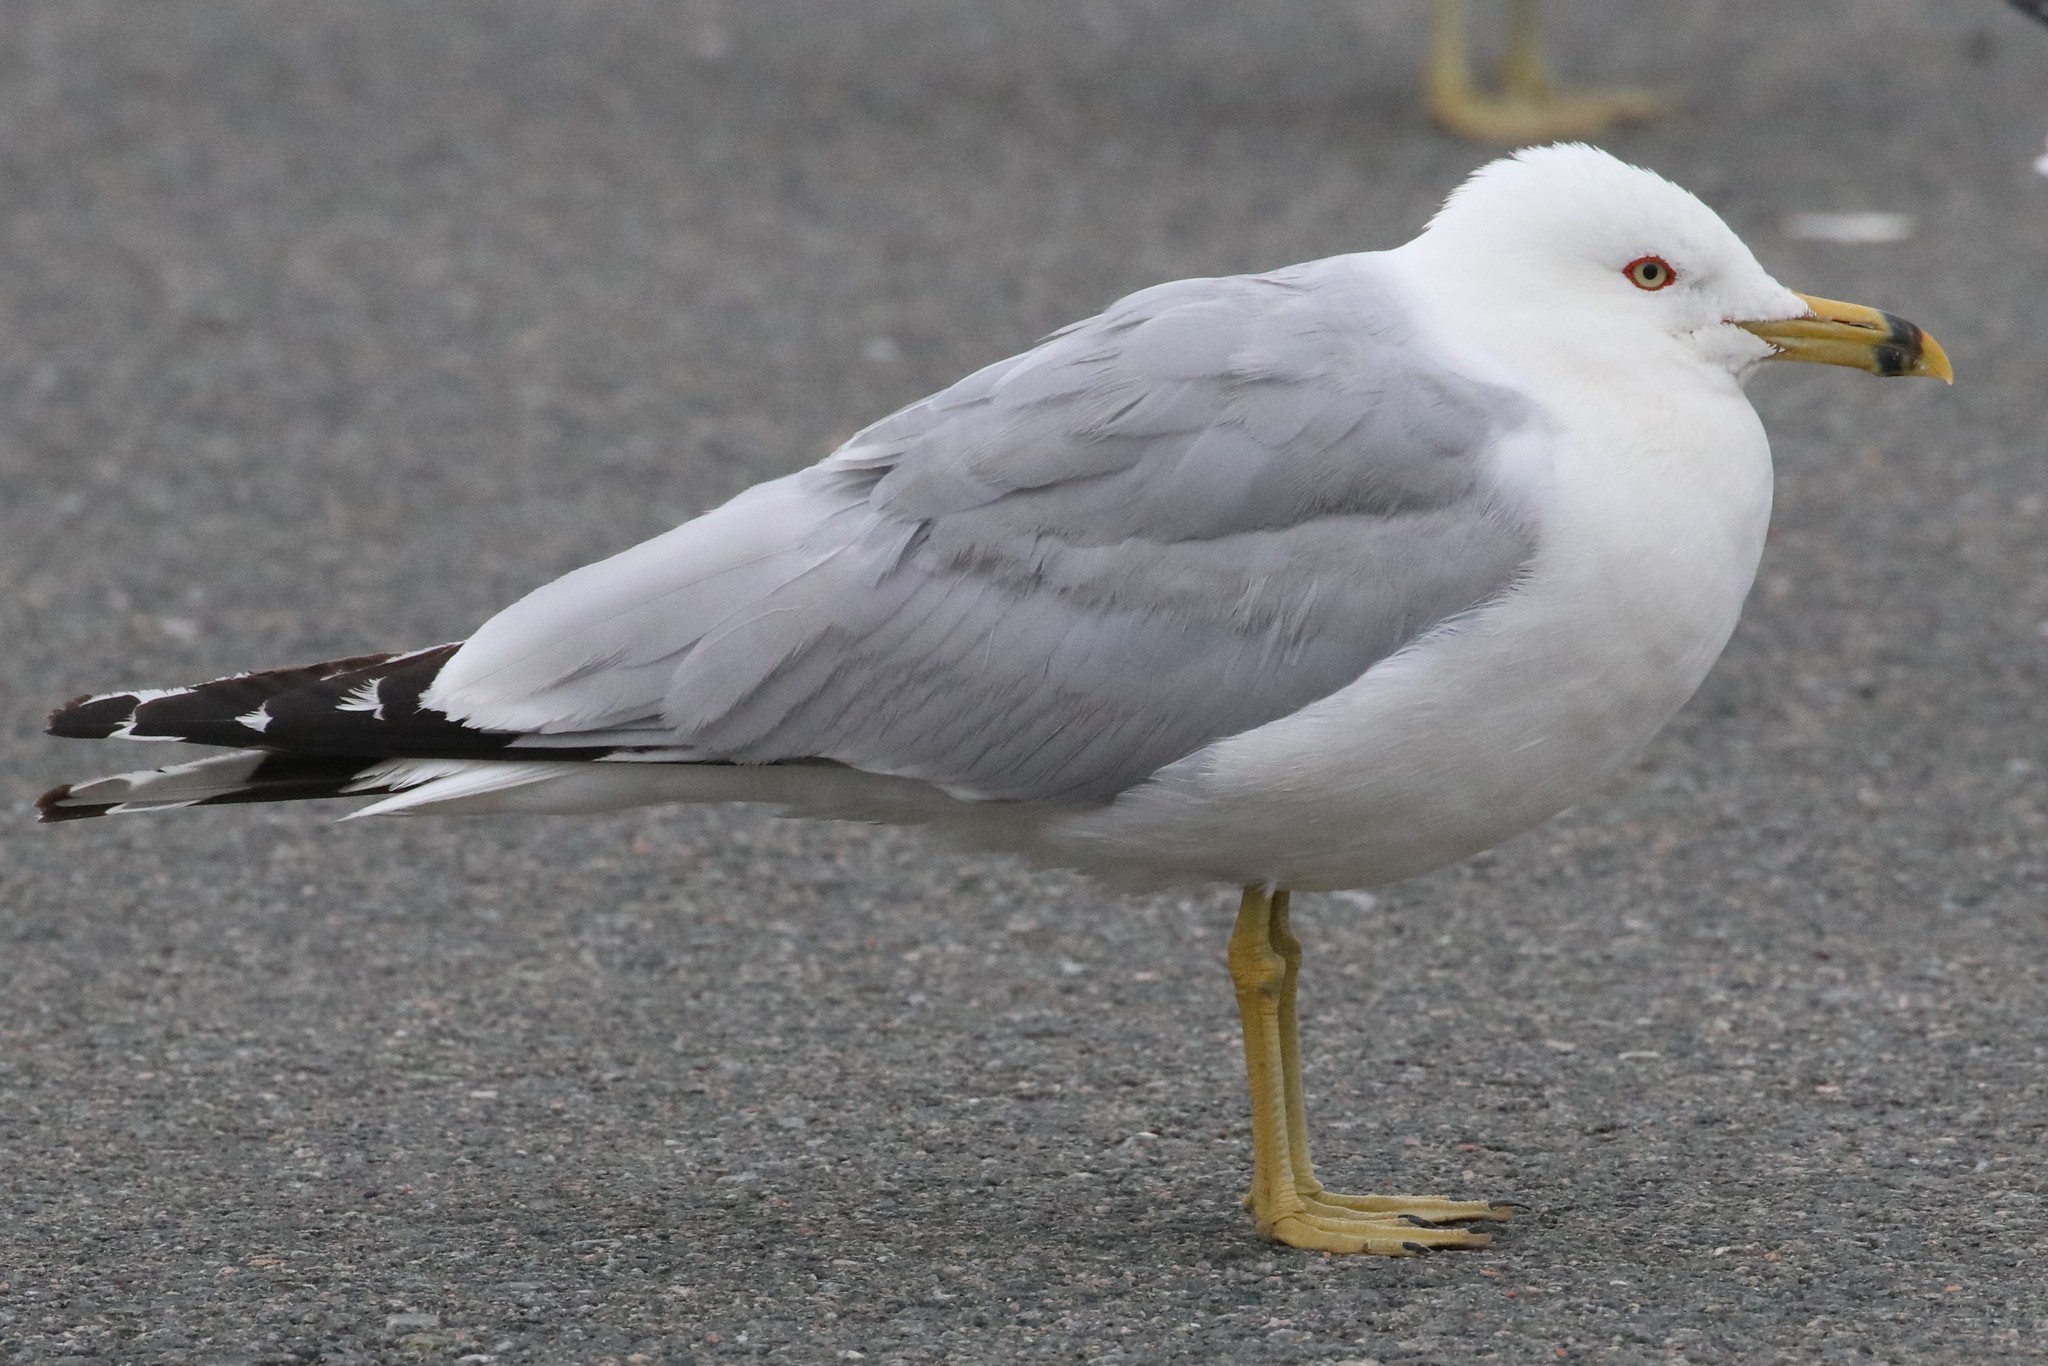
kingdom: Animalia
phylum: Chordata
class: Aves
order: Charadriiformes
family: Laridae
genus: Larus
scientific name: Larus delawarensis
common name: Ring-billed gull
